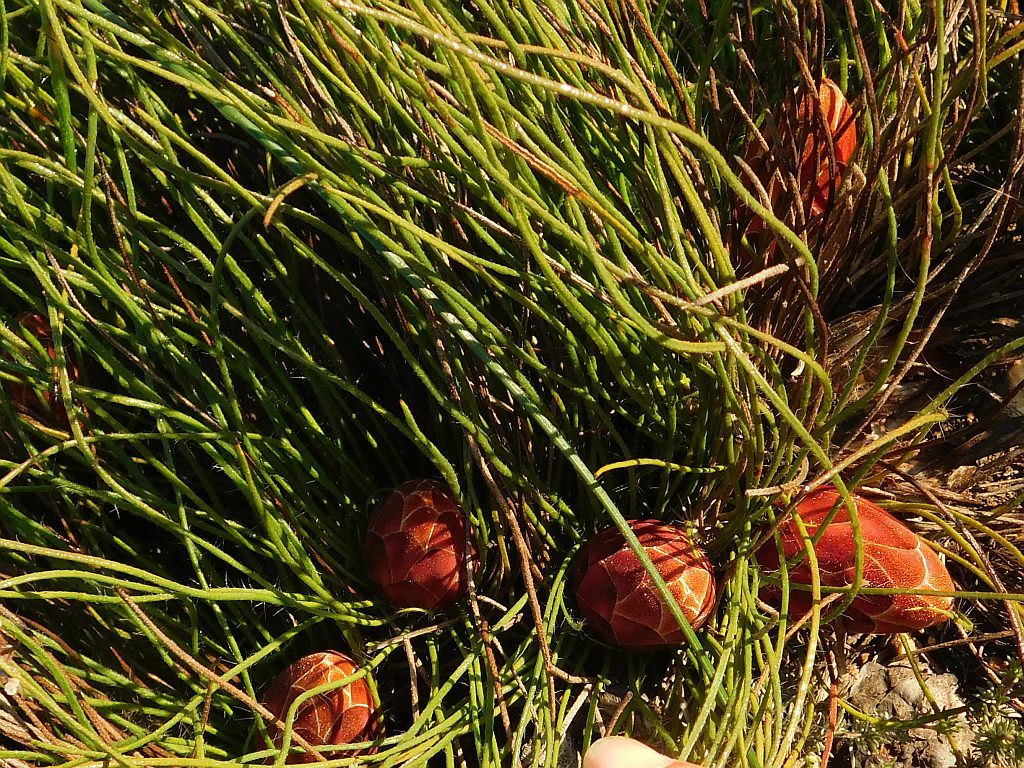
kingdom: Plantae
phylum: Tracheophyta
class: Magnoliopsida
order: Proteales
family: Proteaceae
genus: Protea
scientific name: Protea restionifolia
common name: Reed-leaf sugarbush
